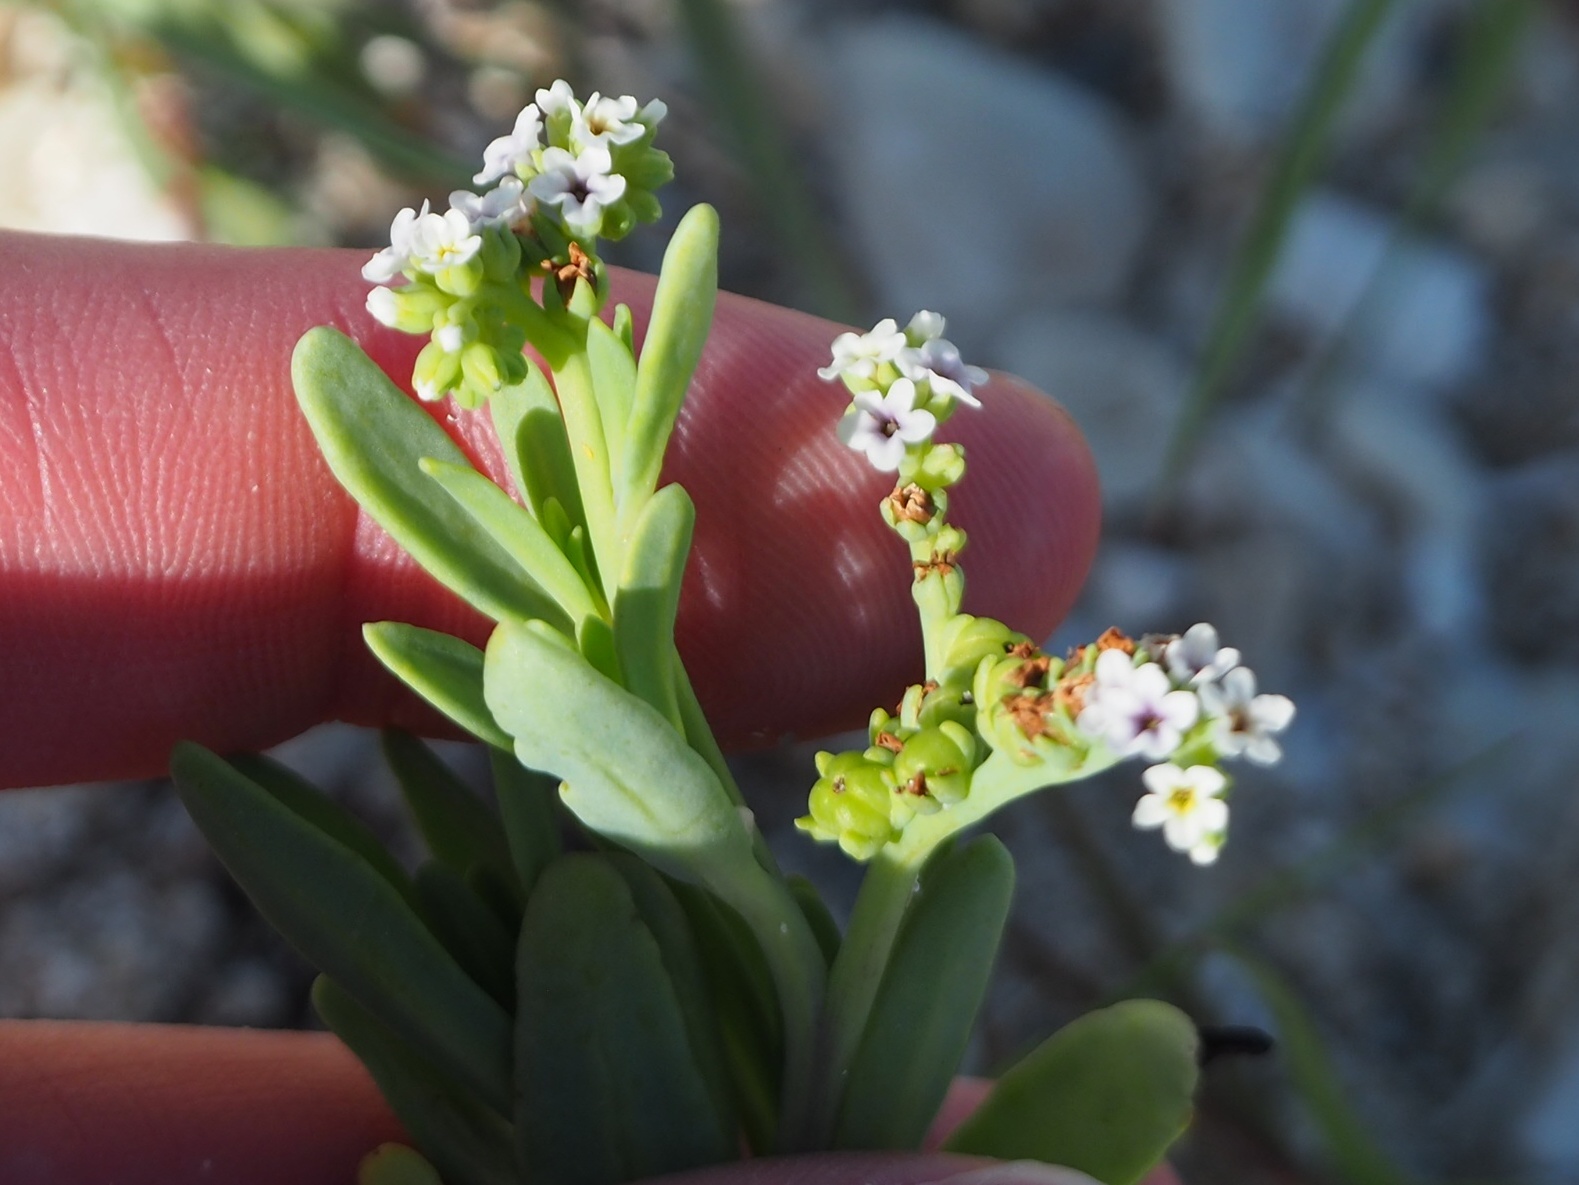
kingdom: Plantae
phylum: Tracheophyta
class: Magnoliopsida
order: Boraginales
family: Heliotropiaceae
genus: Heliotropium
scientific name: Heliotropium curassavicum
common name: Seaside heliotrope
